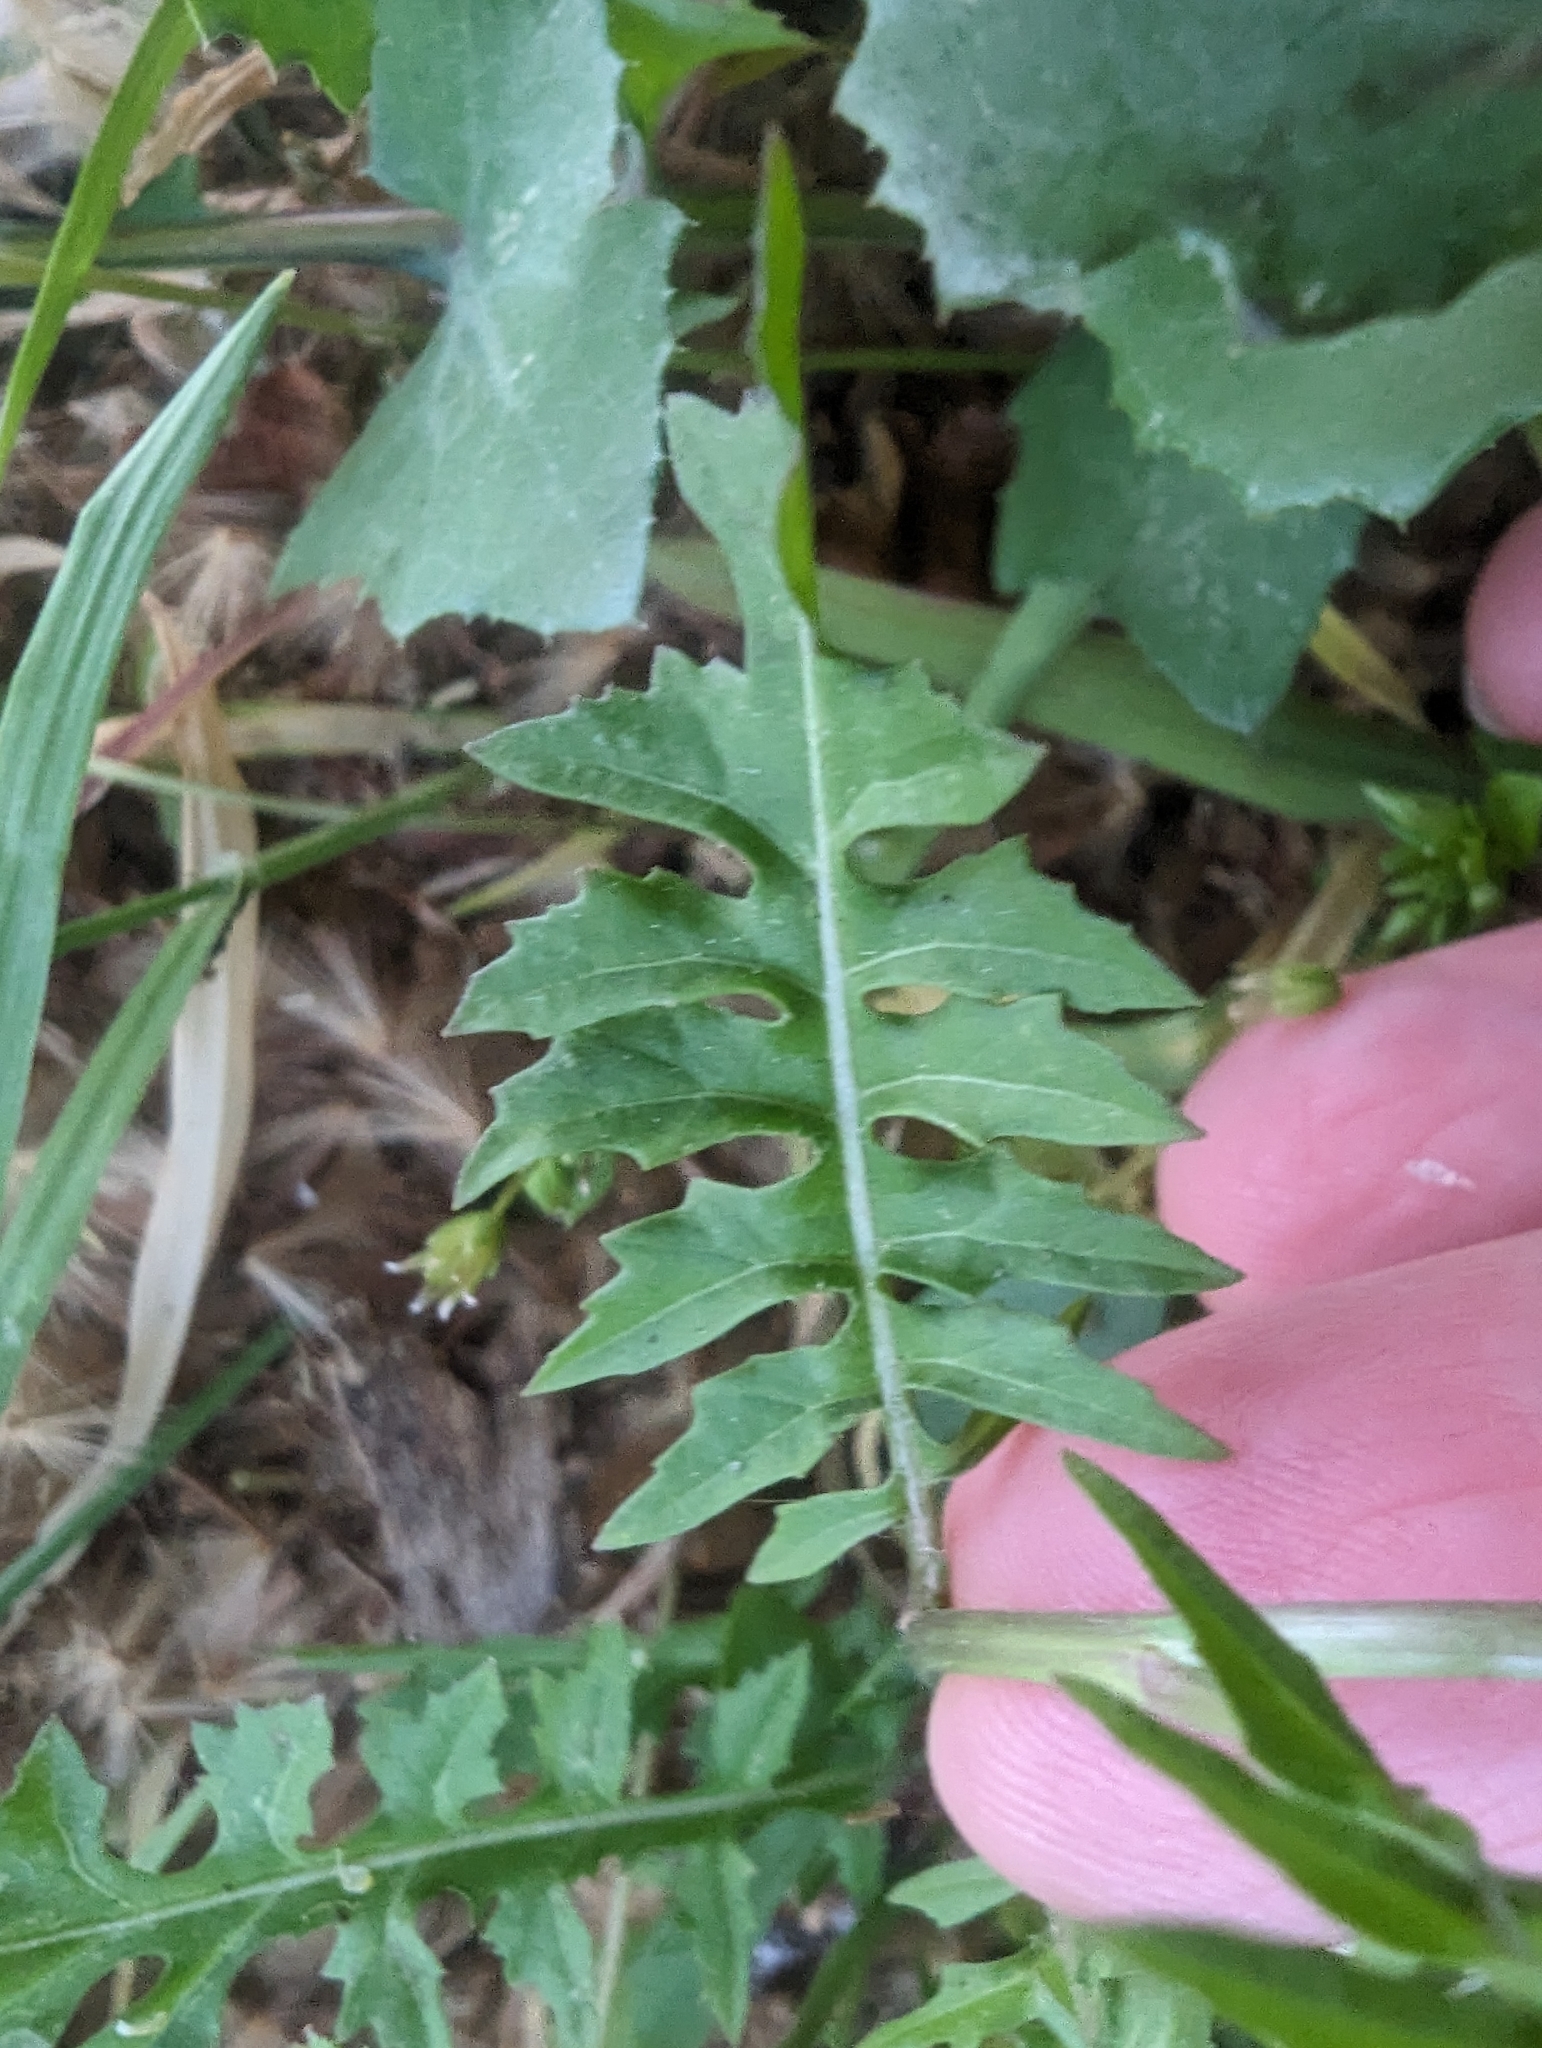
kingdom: Plantae
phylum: Tracheophyta
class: Magnoliopsida
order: Brassicales
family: Brassicaceae
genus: Sisymbrium
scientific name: Sisymbrium irio
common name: London rocket
